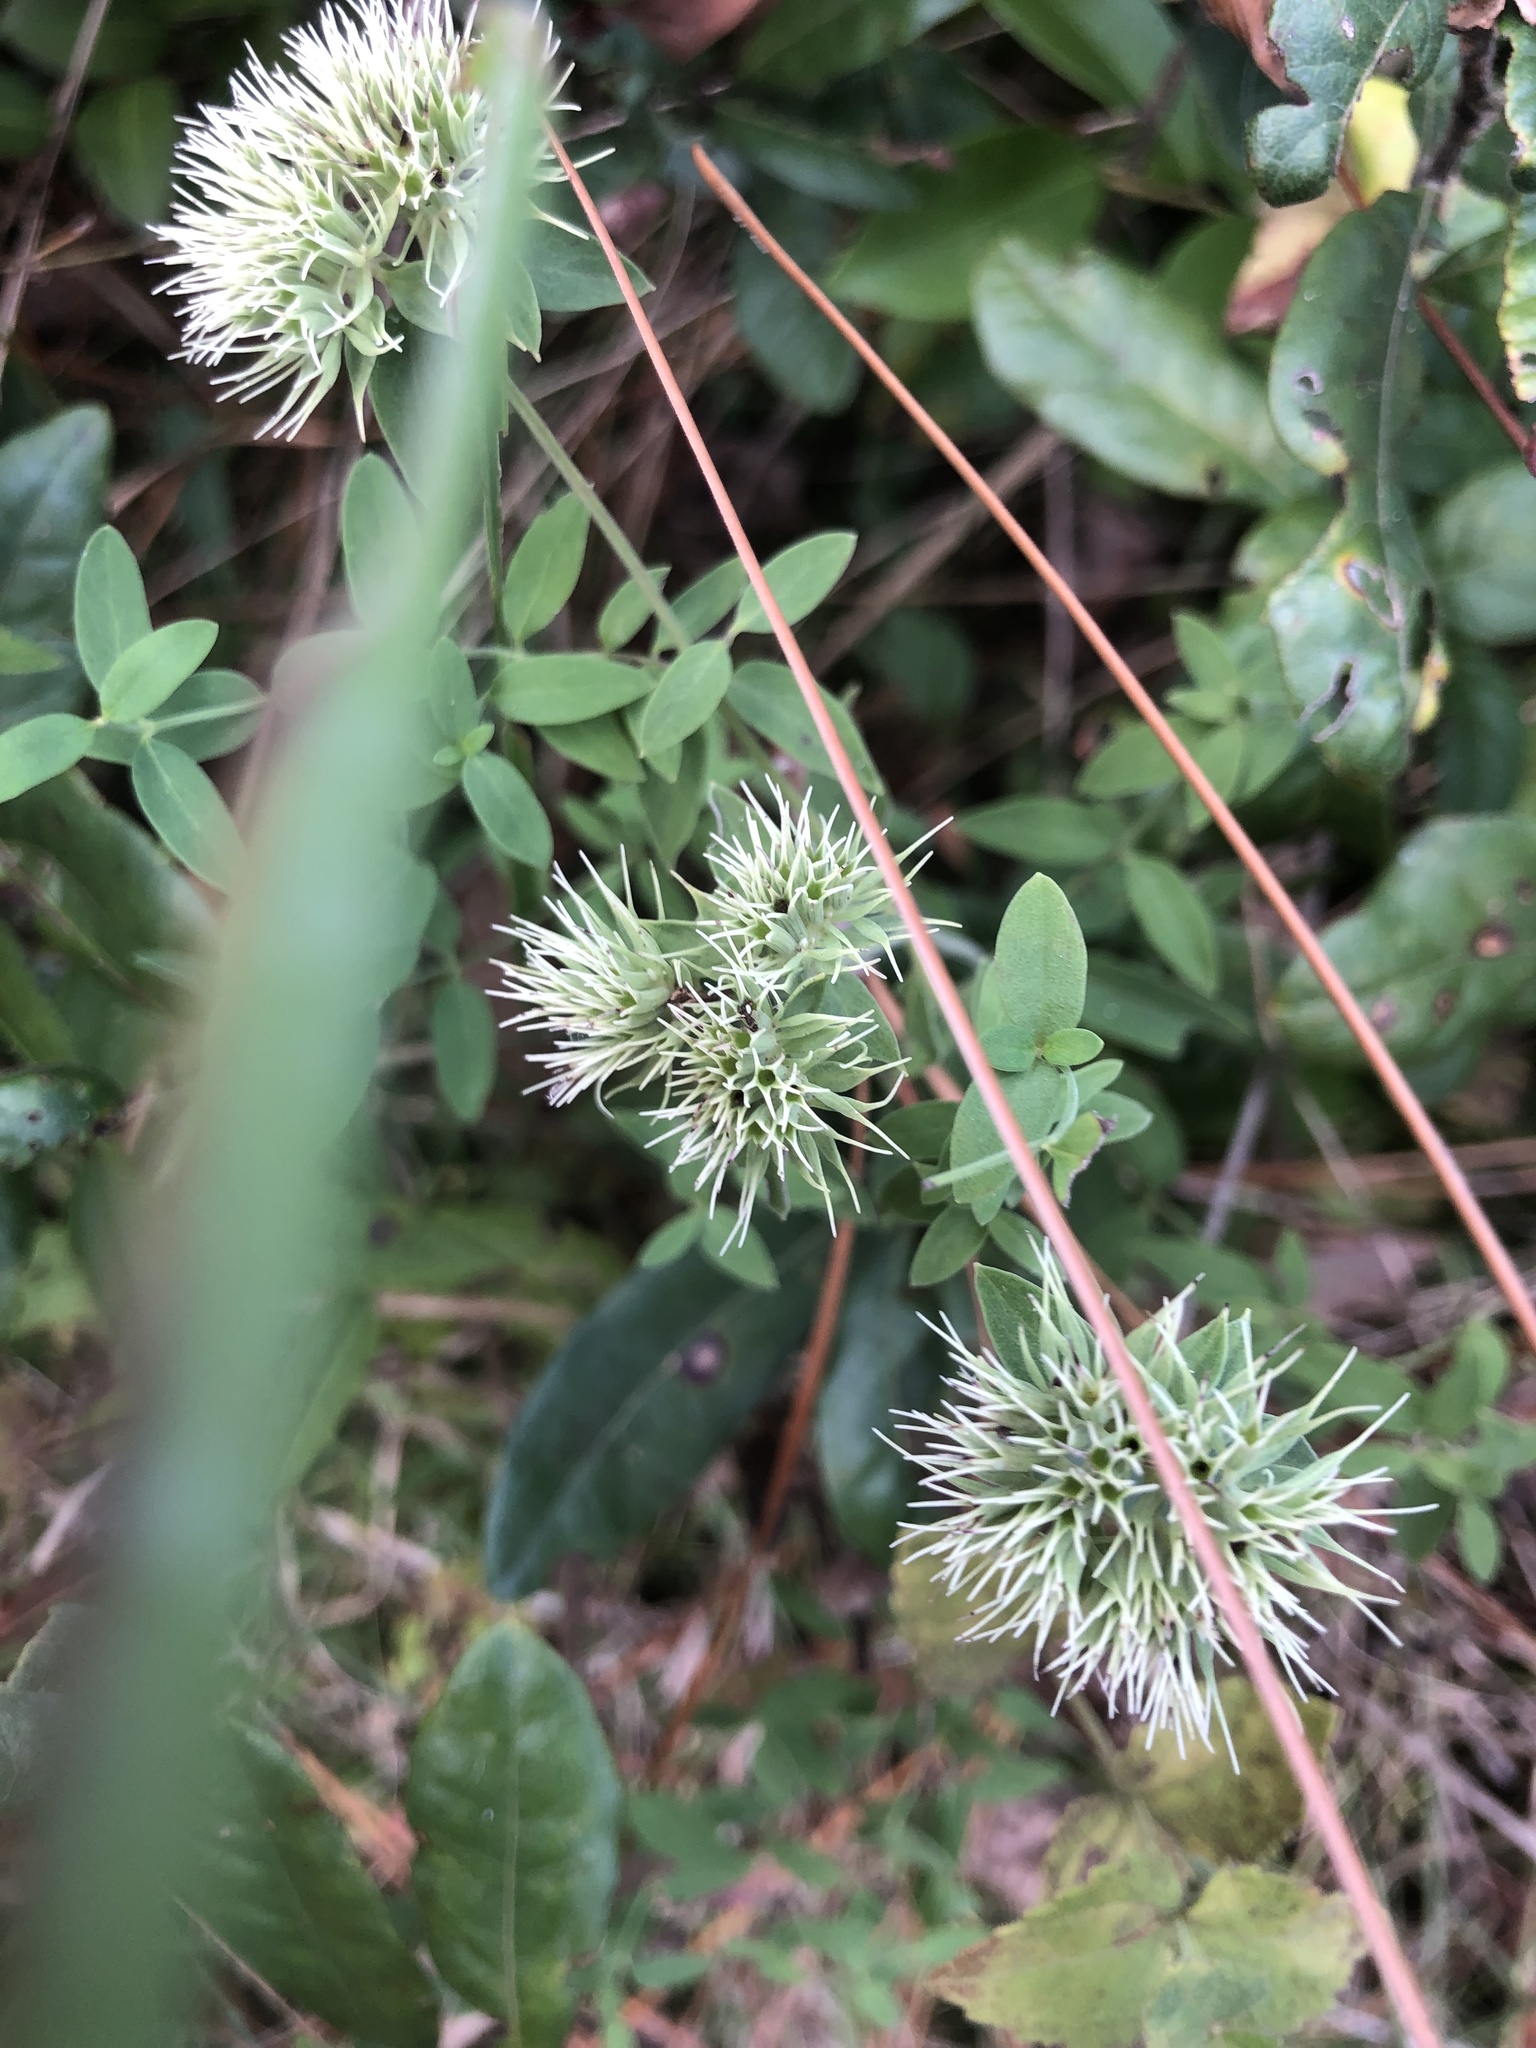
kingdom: Plantae
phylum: Tracheophyta
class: Magnoliopsida
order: Lamiales
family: Lamiaceae
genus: Pycnanthemum
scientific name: Pycnanthemum flexuosum
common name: Appalachian mountain-mint
